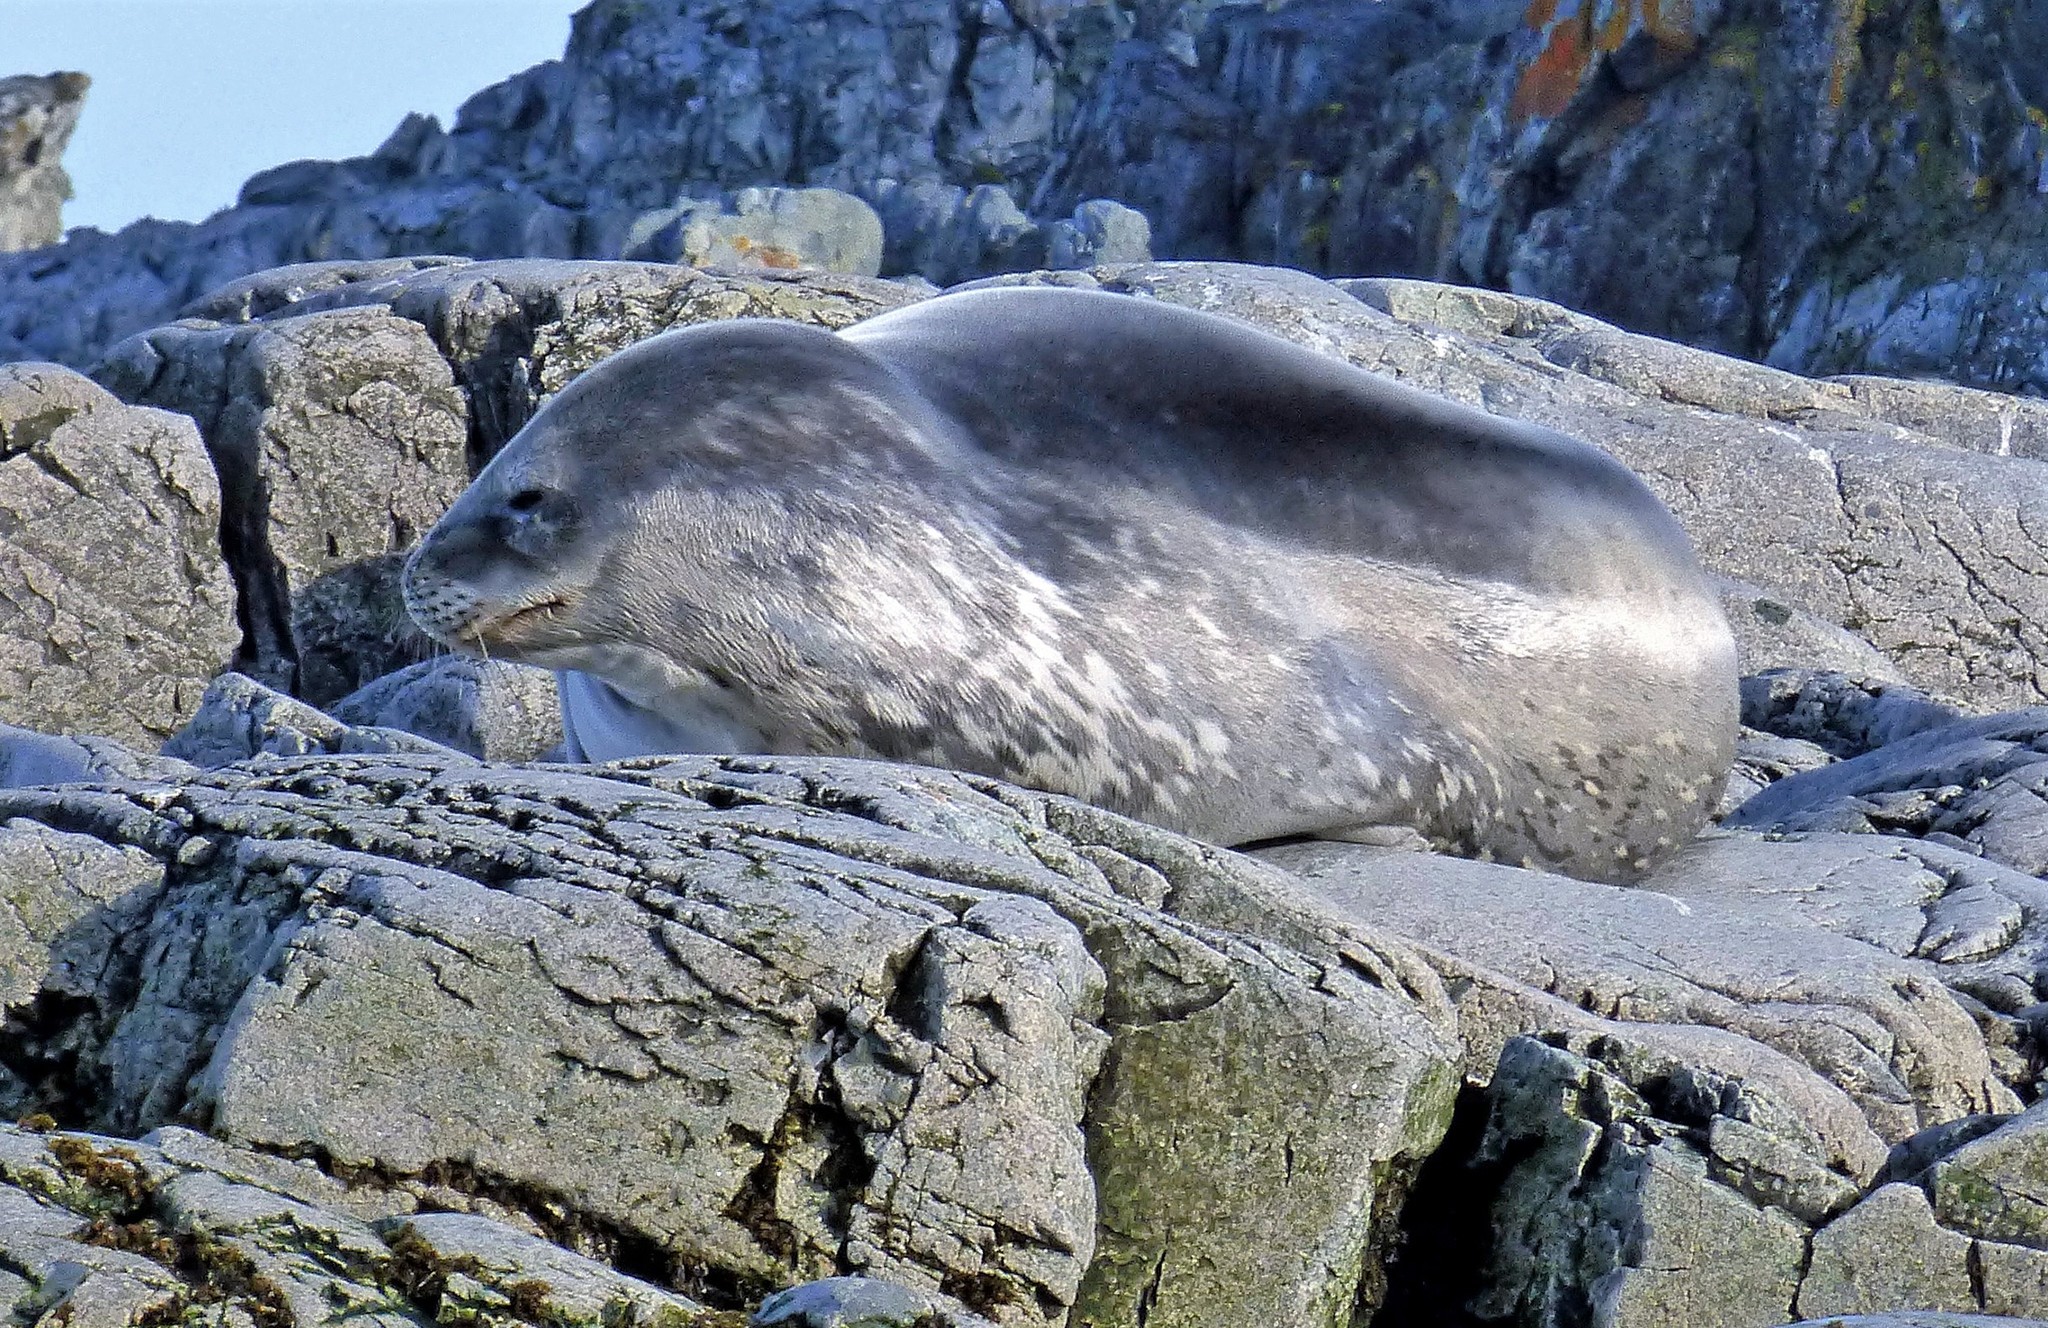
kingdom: Animalia
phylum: Chordata
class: Mammalia
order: Carnivora
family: Phocidae
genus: Leptonychotes
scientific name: Leptonychotes weddellii
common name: Weddell seal
